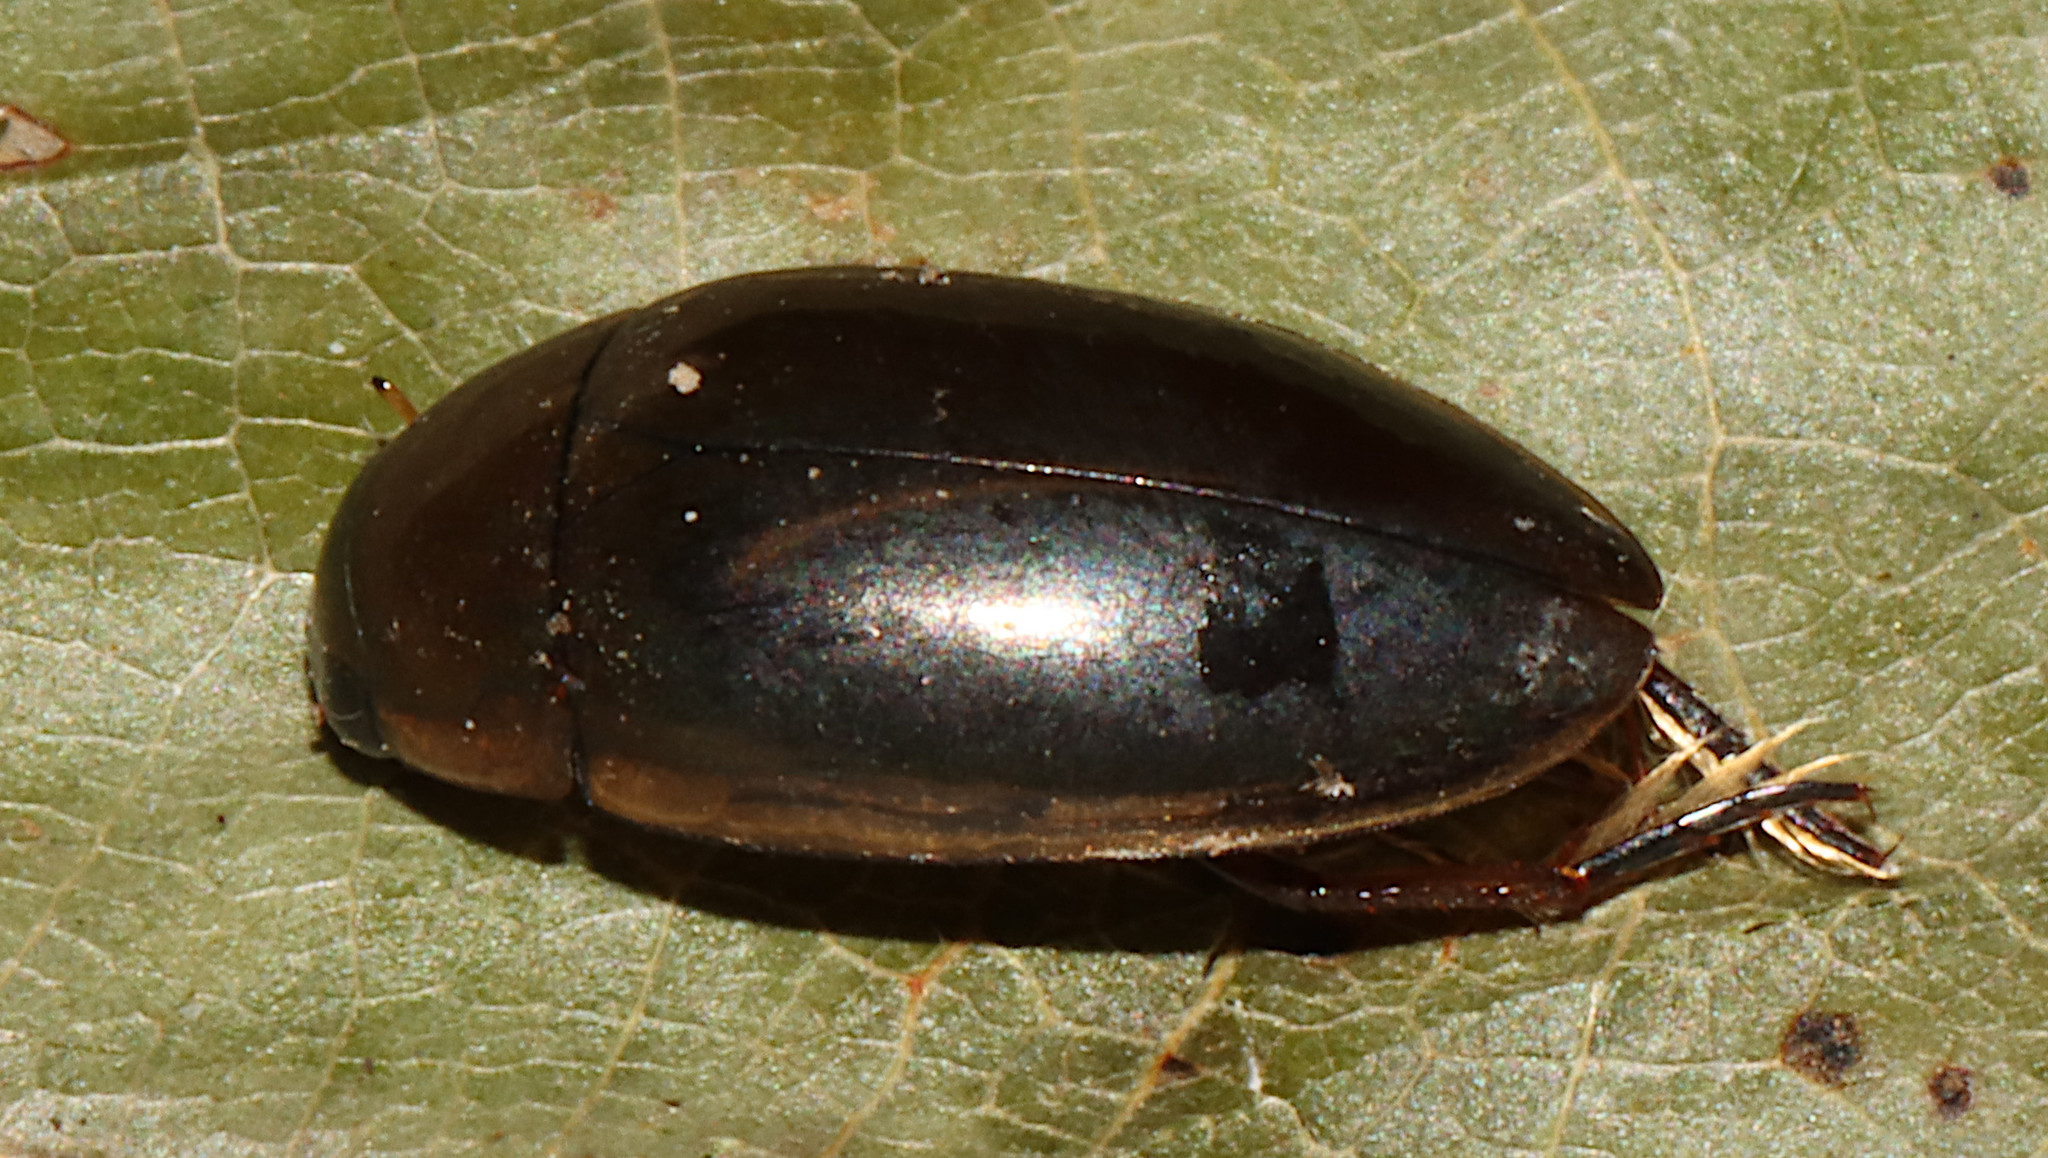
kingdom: Animalia
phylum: Arthropoda
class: Insecta
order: Coleoptera
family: Hydrophilidae
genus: Tropisternus
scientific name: Tropisternus lateralis
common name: Lateral-banded water scavenger beetle
